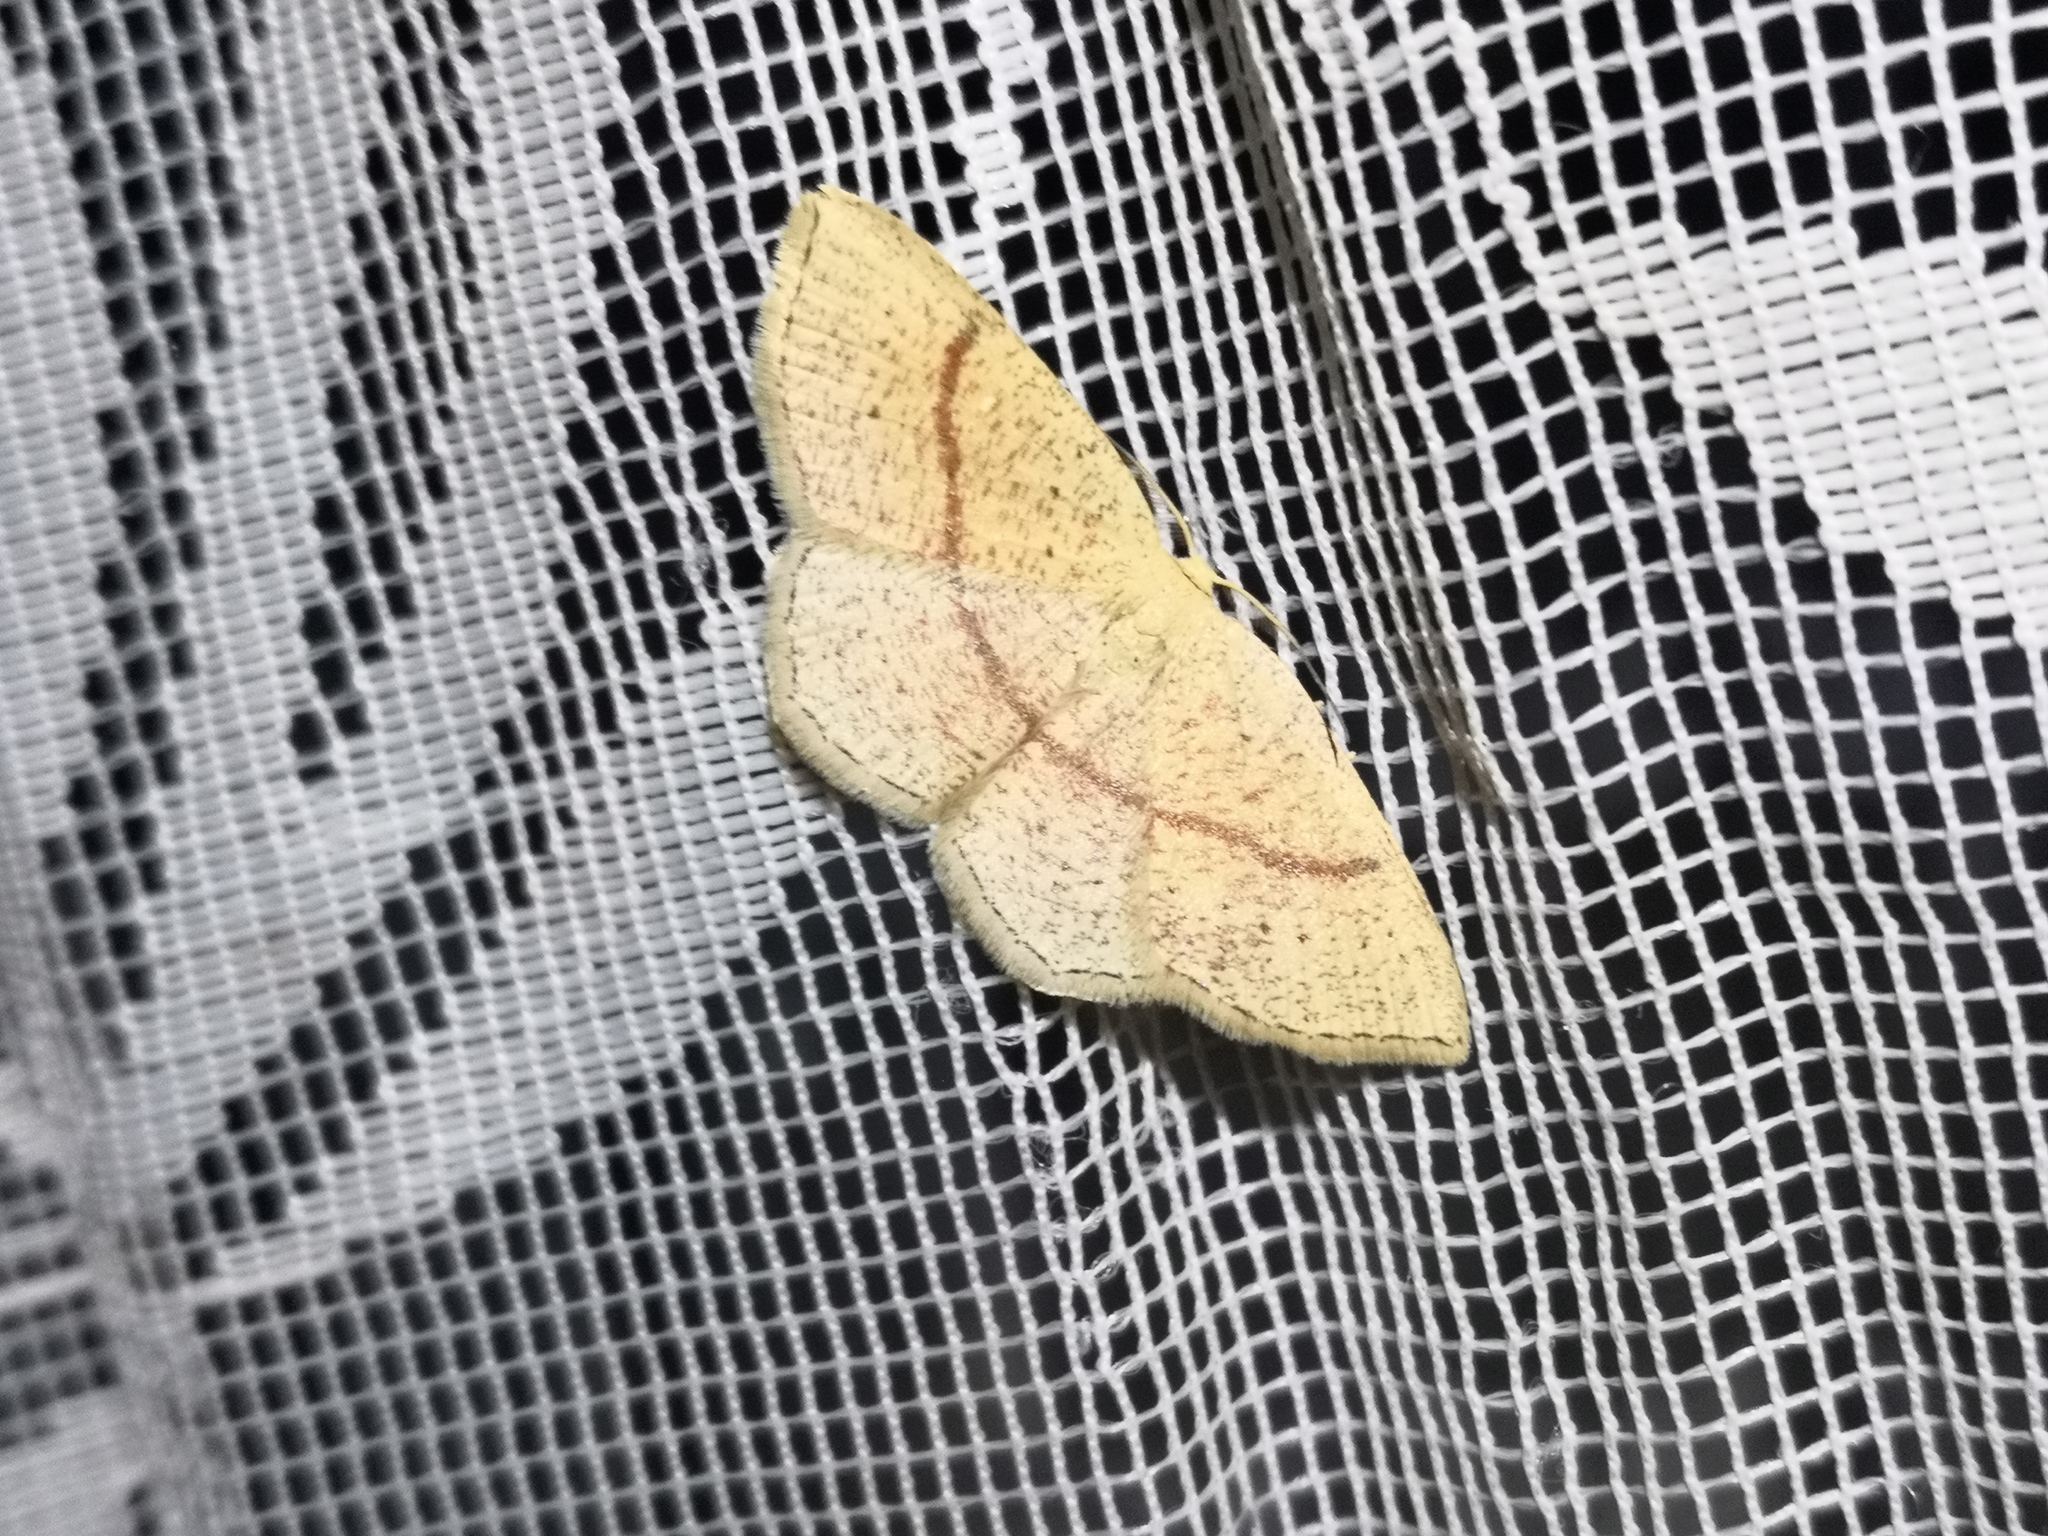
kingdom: Animalia
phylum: Arthropoda
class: Insecta
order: Lepidoptera
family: Geometridae
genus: Cyclophora
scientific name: Cyclophora quercimontaria
